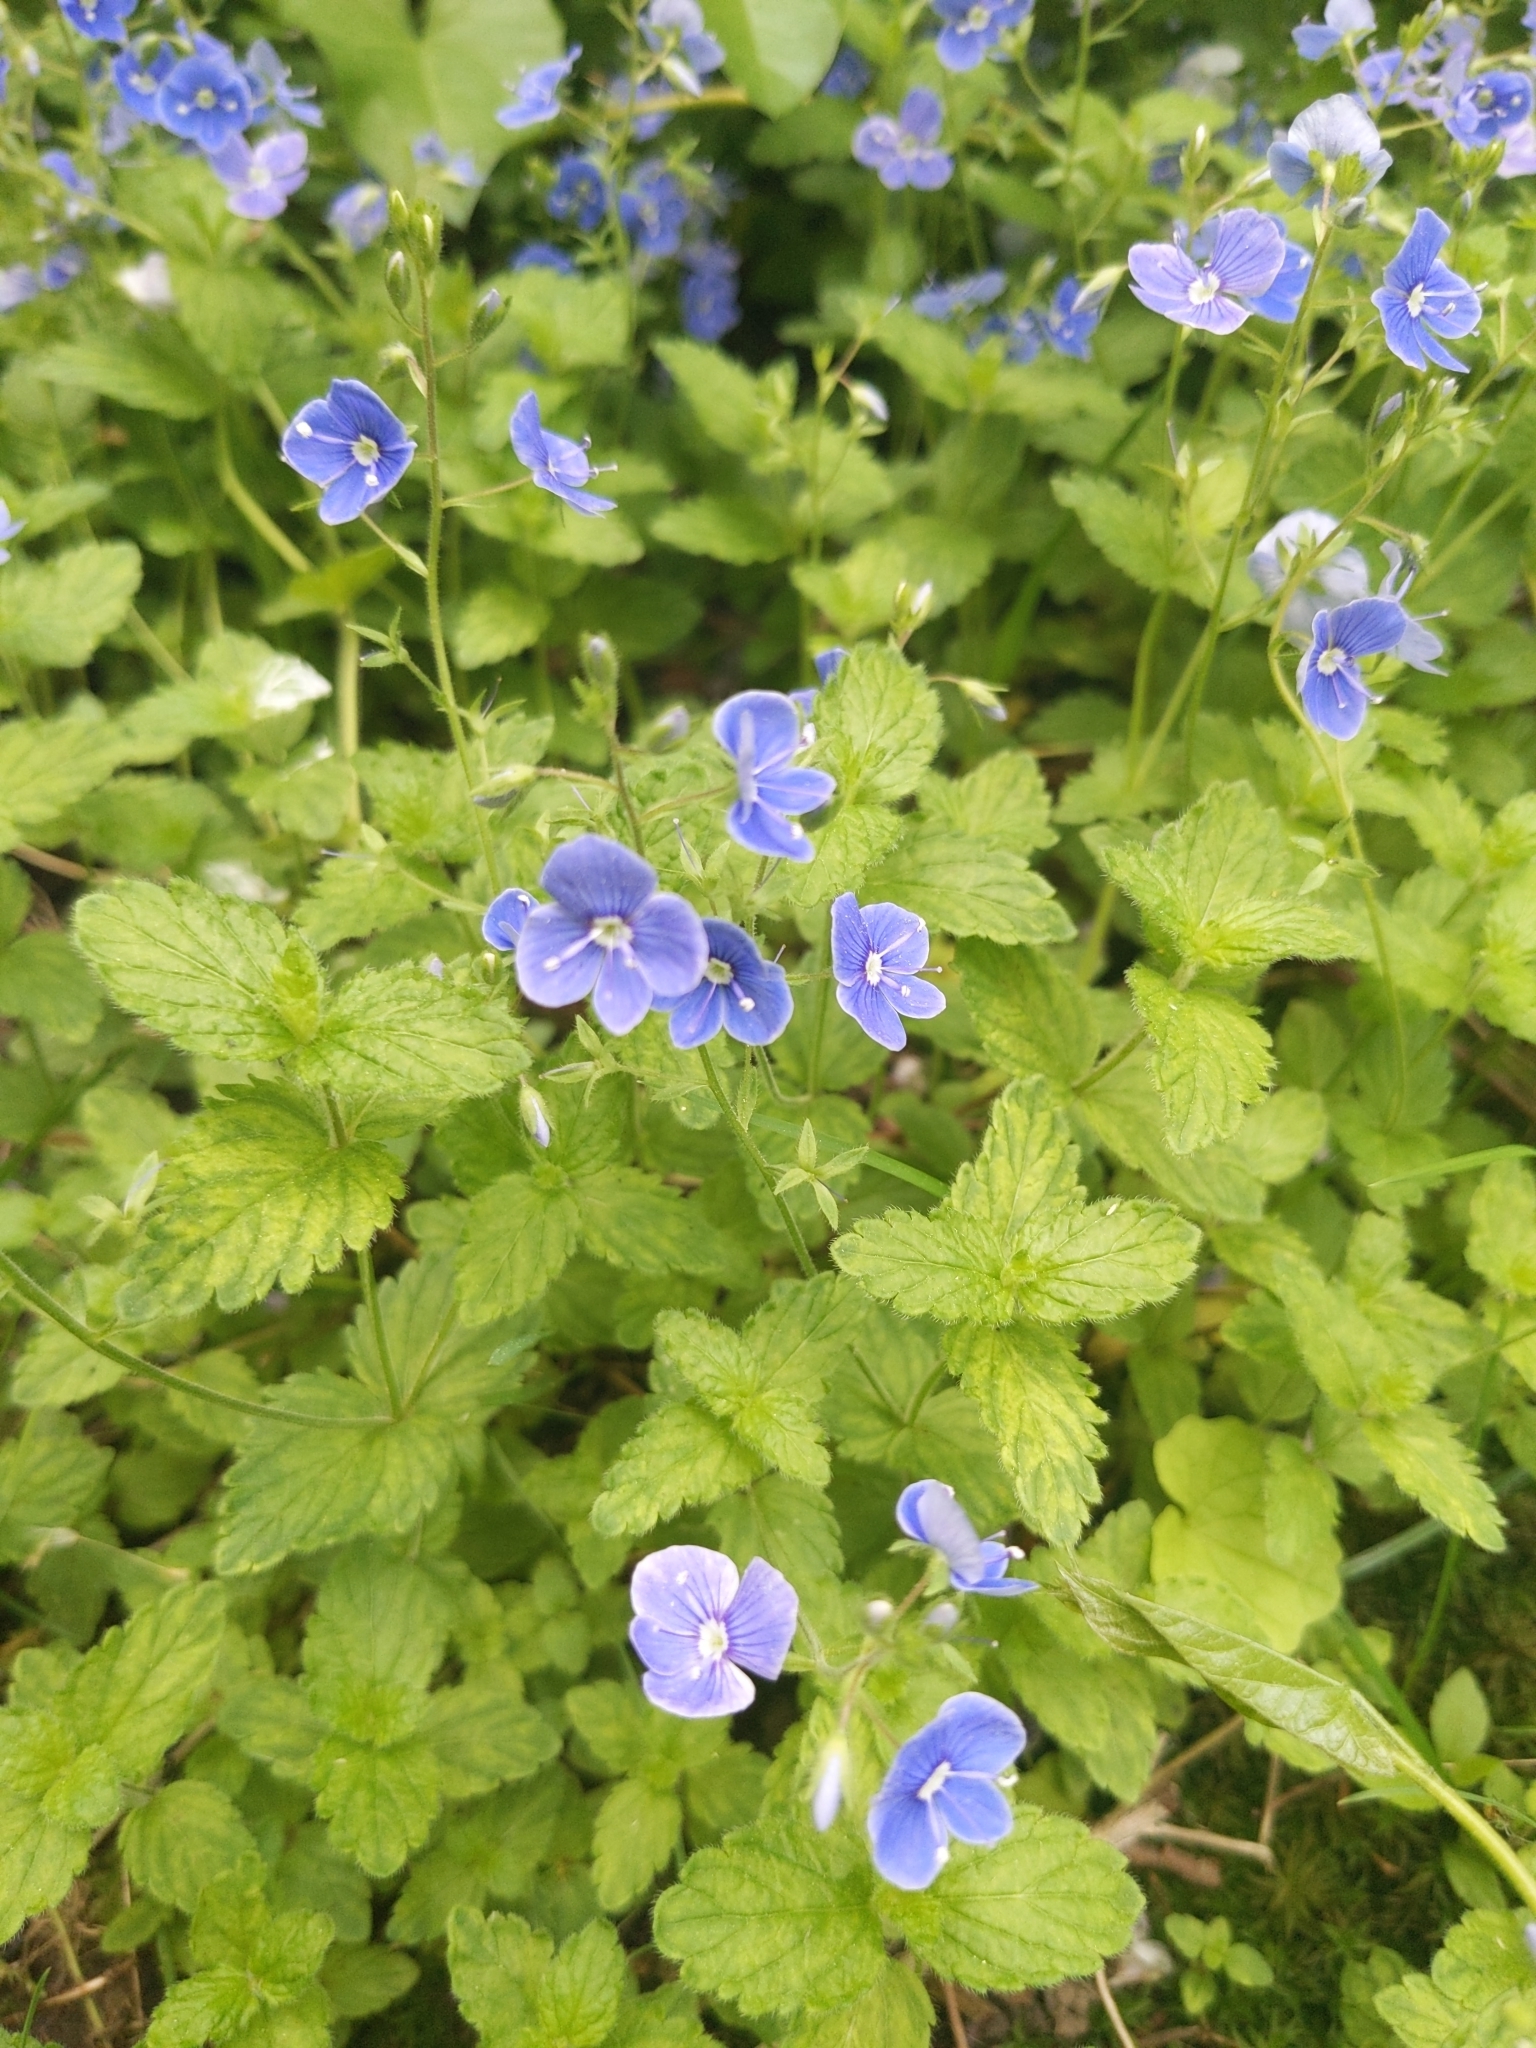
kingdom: Plantae
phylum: Tracheophyta
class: Magnoliopsida
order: Lamiales
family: Plantaginaceae
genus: Veronica
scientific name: Veronica chamaedrys
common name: Germander speedwell
